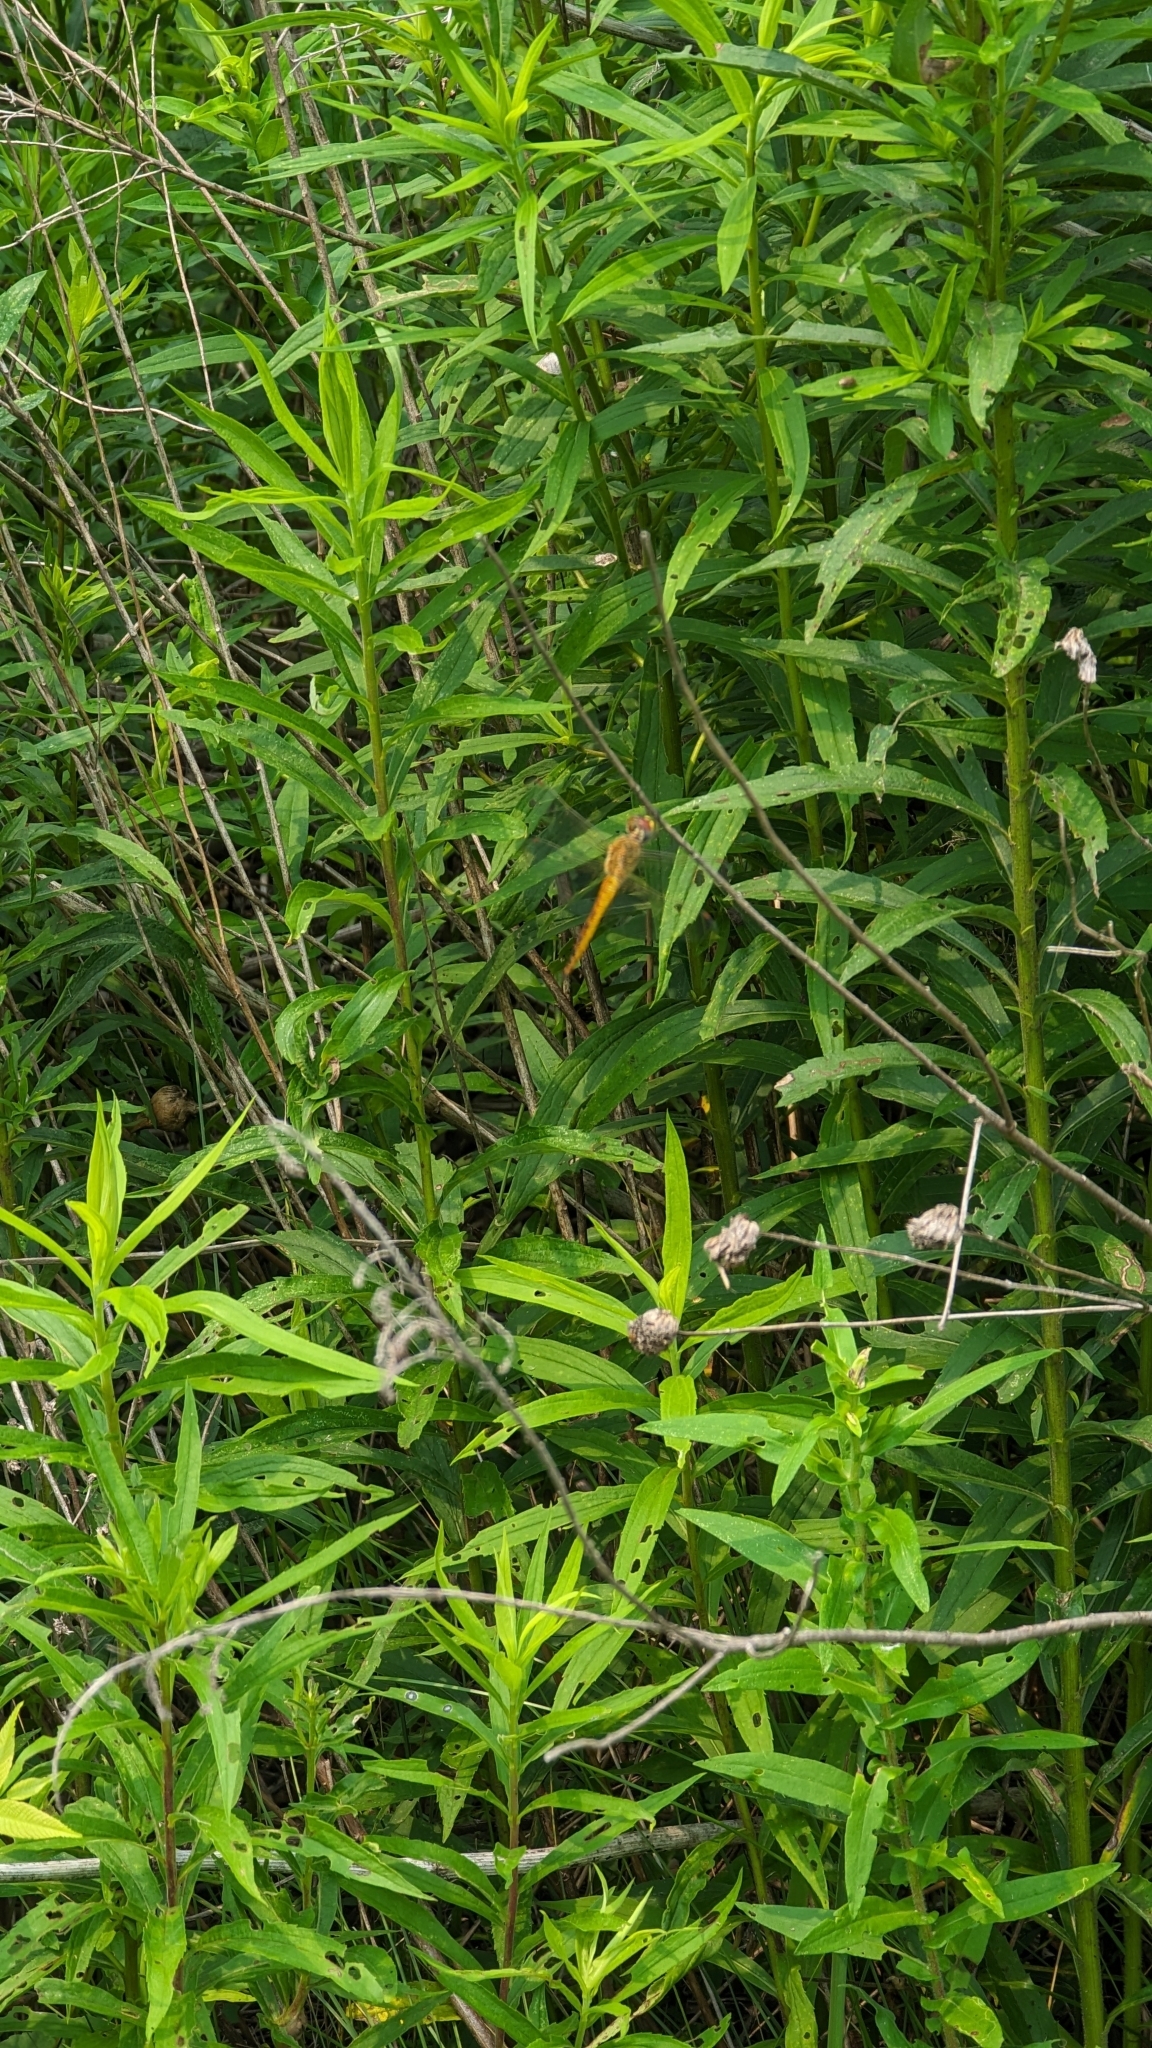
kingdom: Animalia
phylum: Arthropoda
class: Insecta
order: Odonata
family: Libellulidae
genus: Pantala
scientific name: Pantala flavescens
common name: Wandering glider
